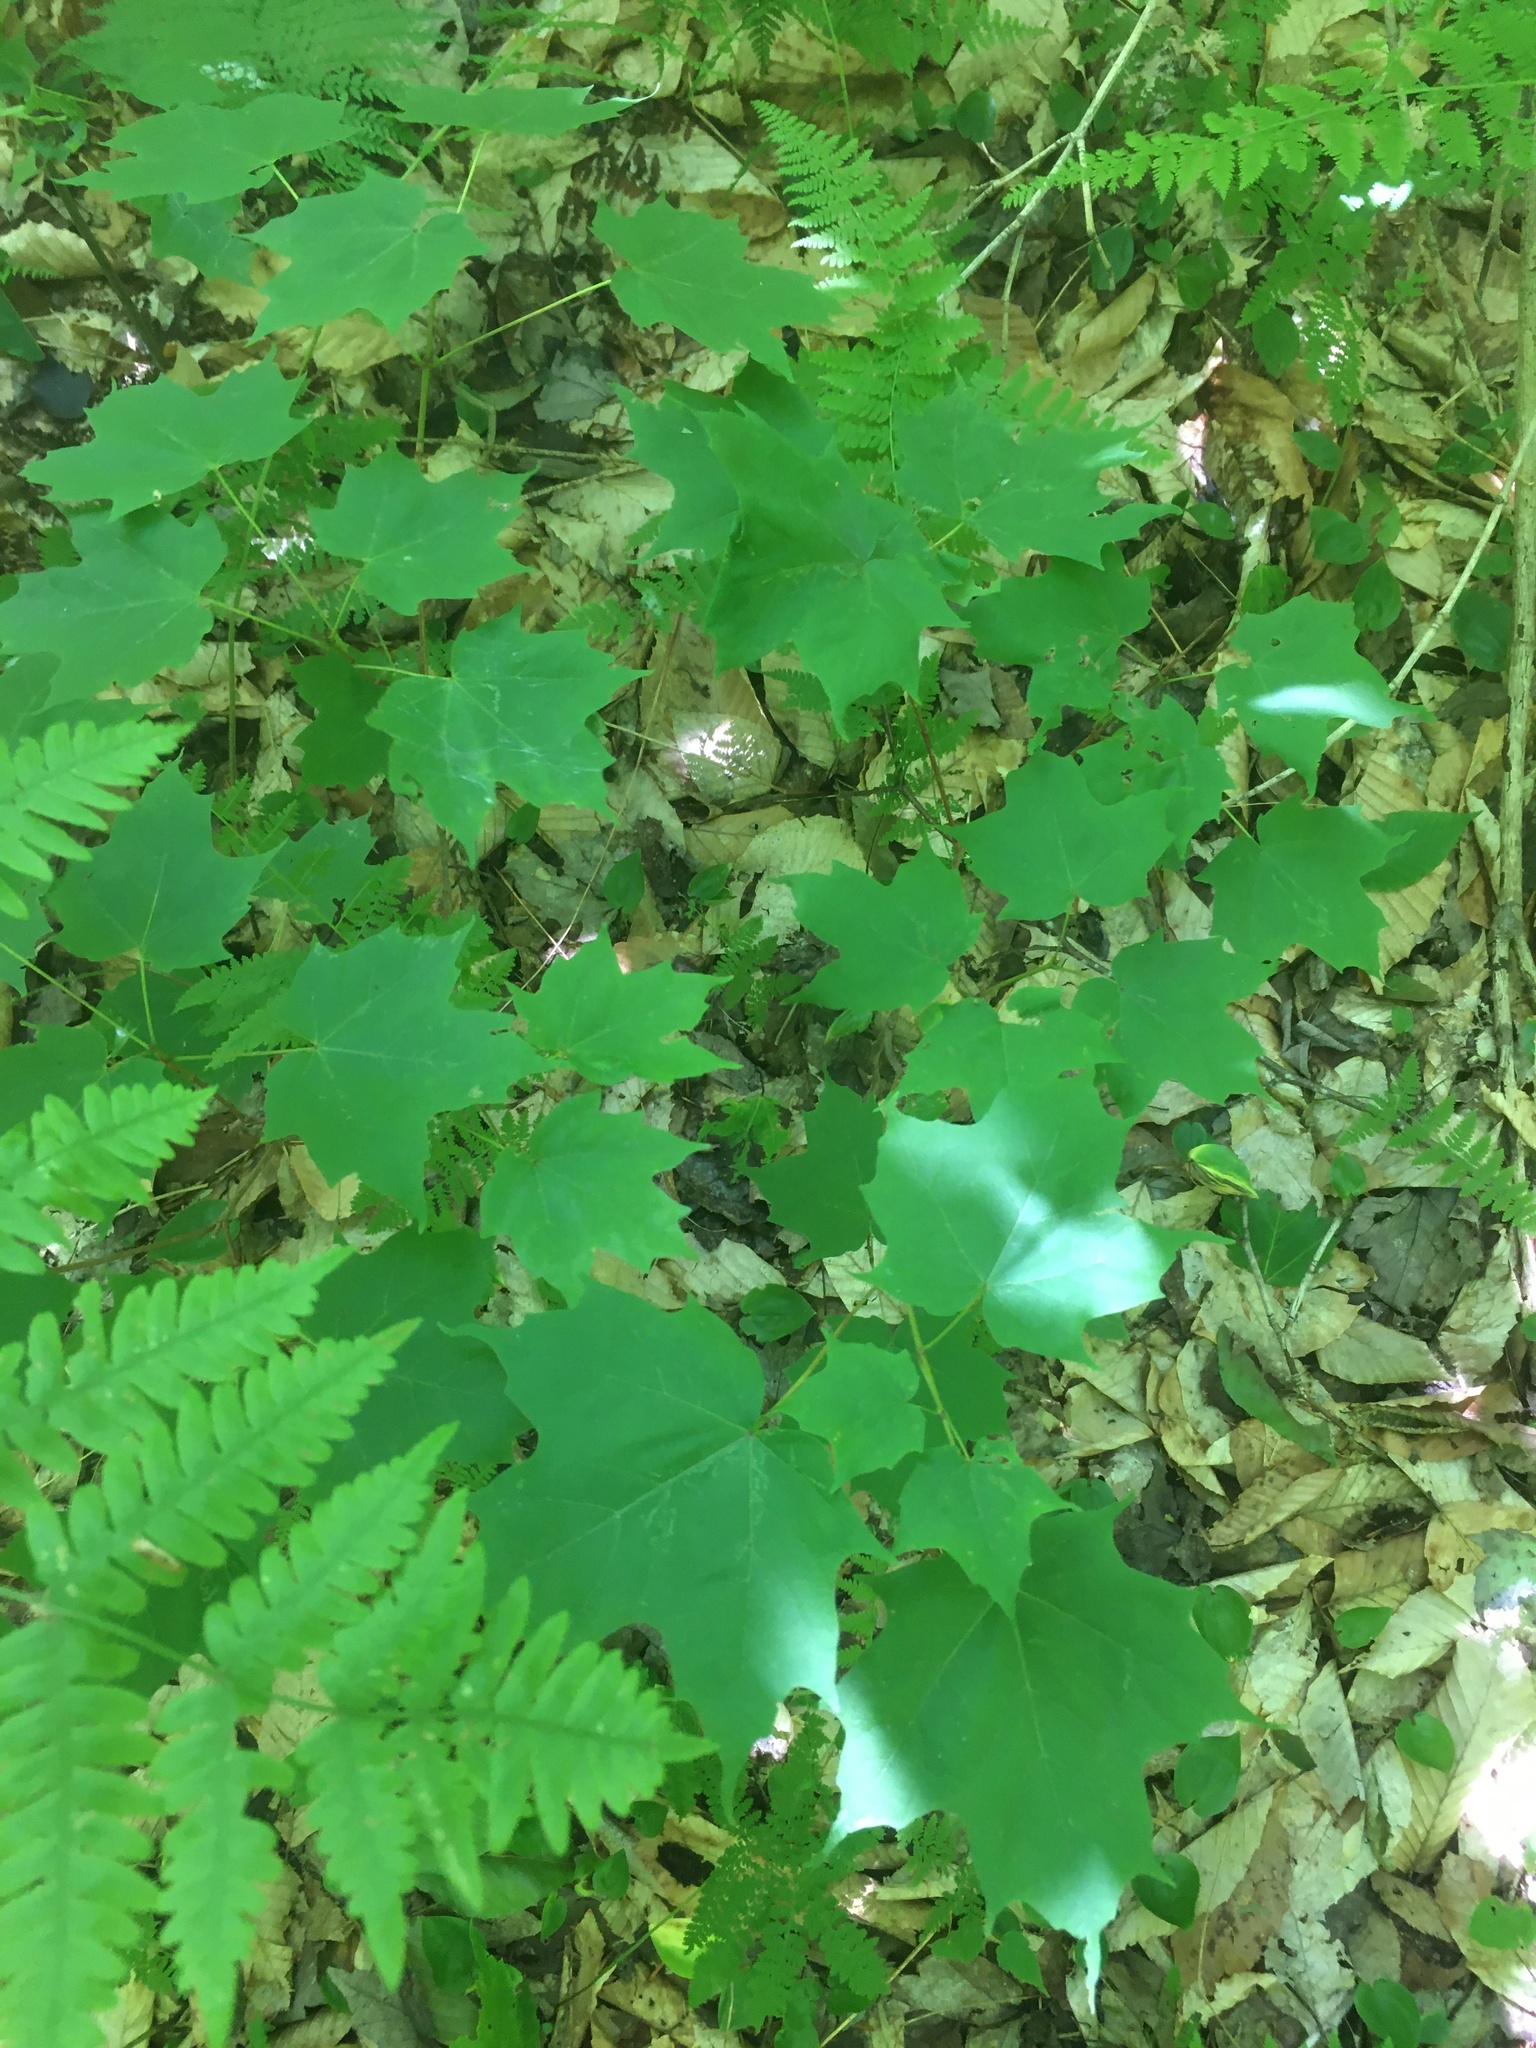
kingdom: Plantae
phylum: Tracheophyta
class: Magnoliopsida
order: Sapindales
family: Sapindaceae
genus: Acer
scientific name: Acer saccharum
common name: Sugar maple
